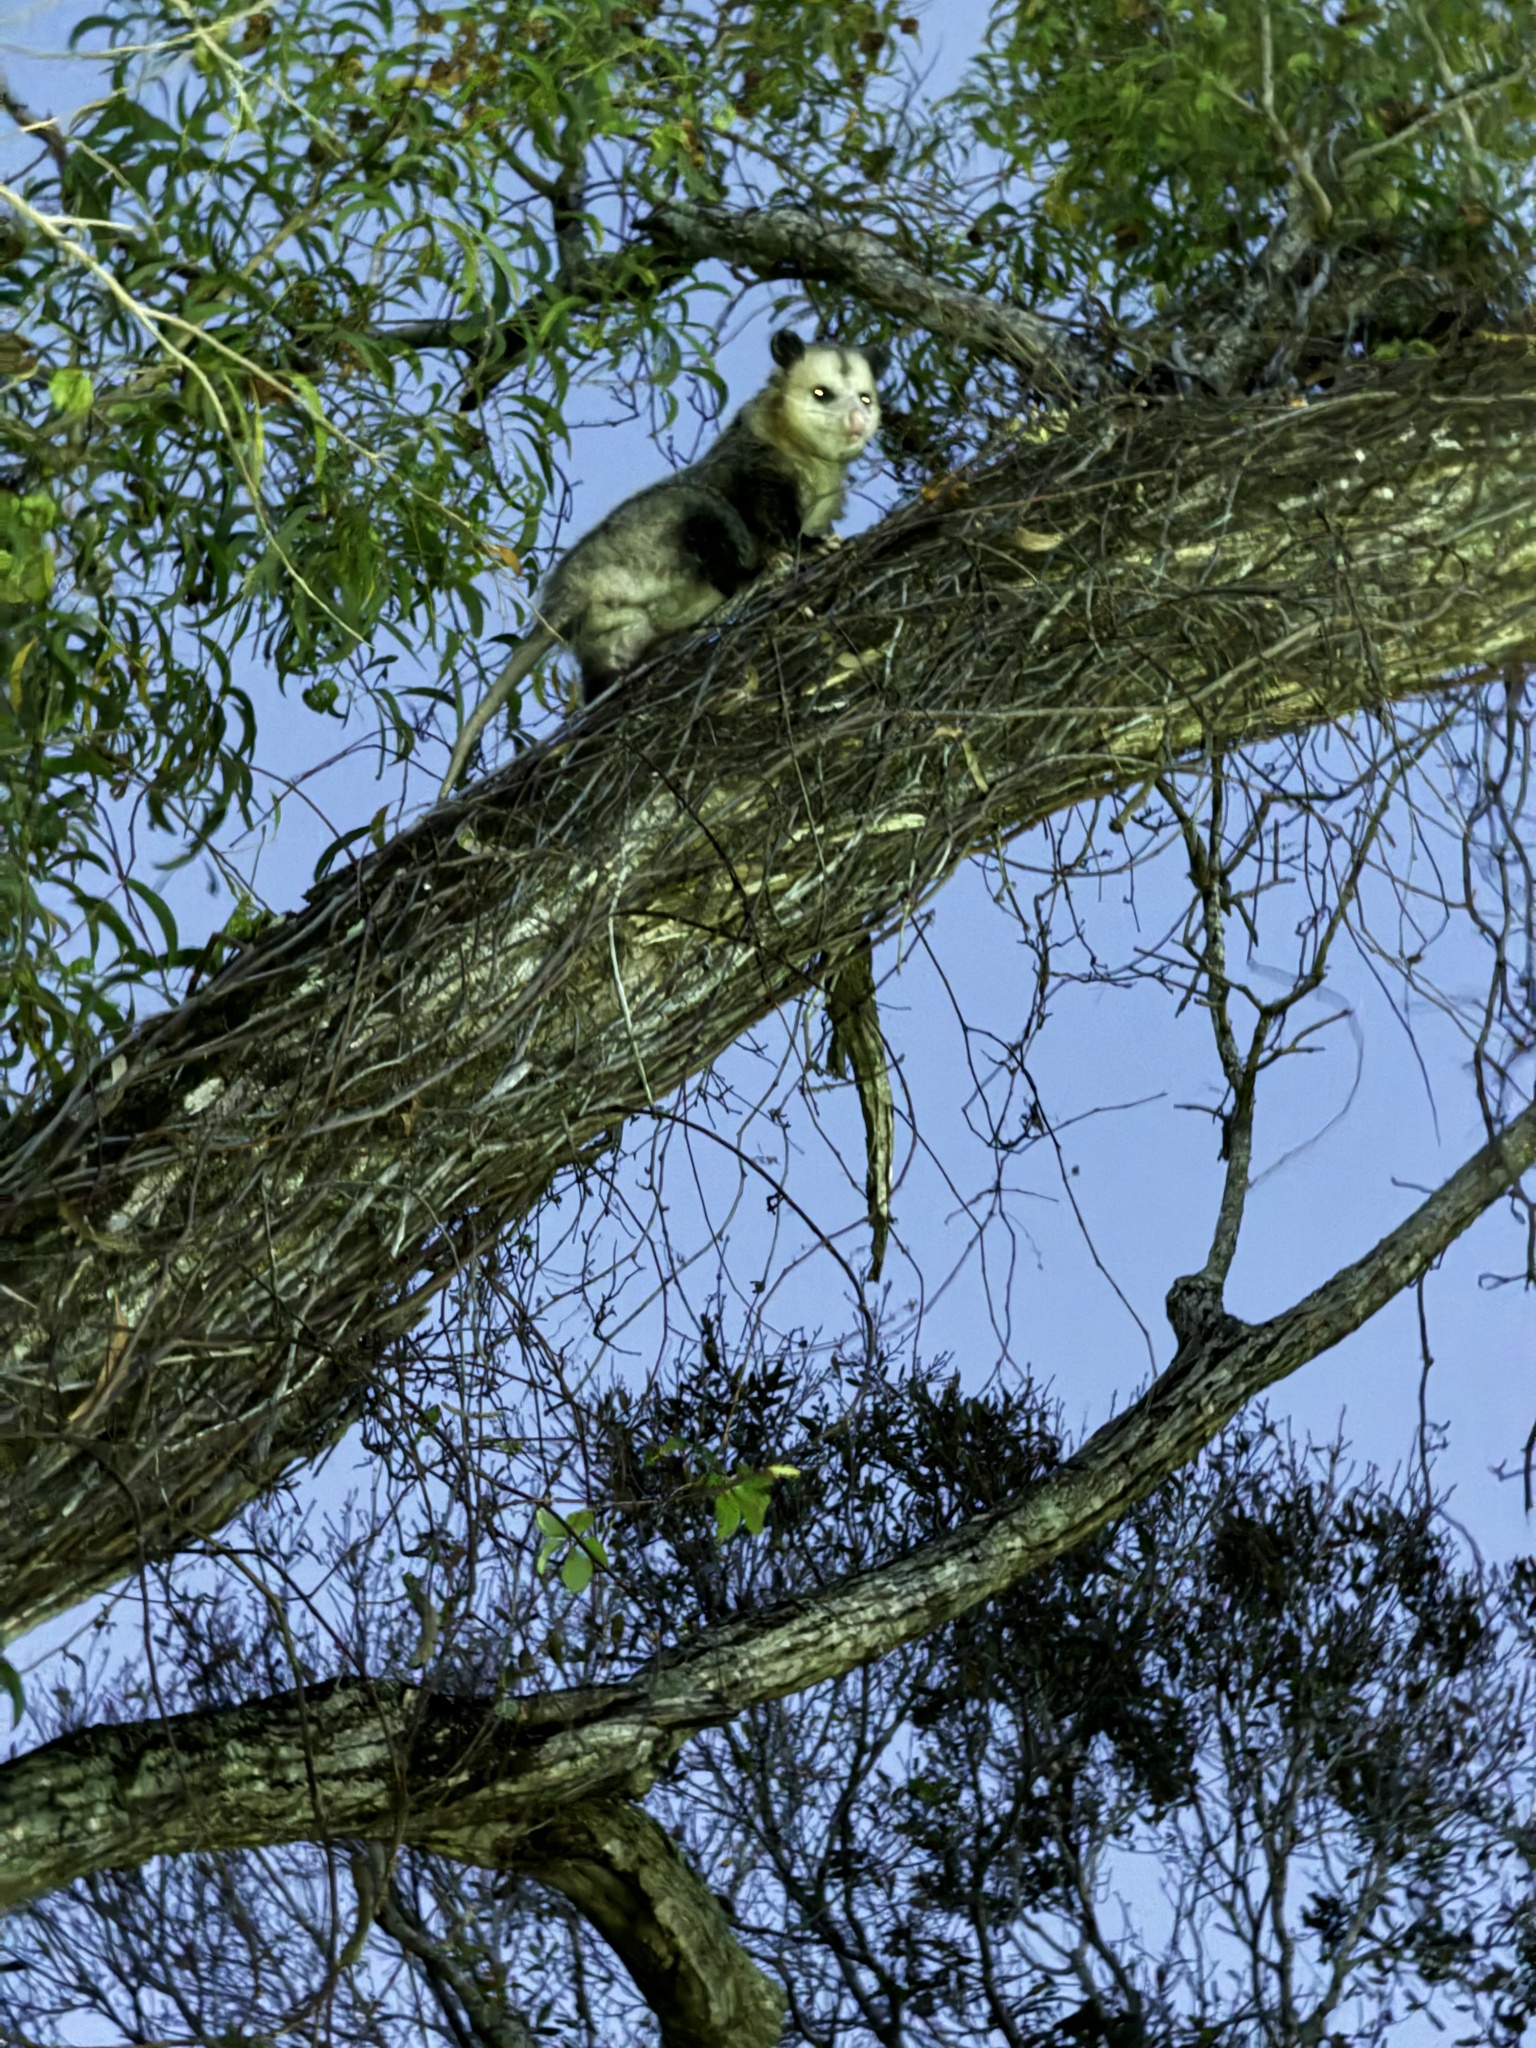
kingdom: Animalia
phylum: Chordata
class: Mammalia
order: Didelphimorphia
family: Didelphidae
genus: Didelphis
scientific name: Didelphis virginiana
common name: Virginia opossum
